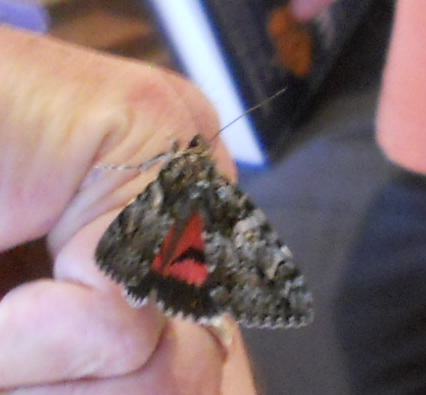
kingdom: Animalia
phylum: Arthropoda
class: Insecta
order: Lepidoptera
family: Erebidae
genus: Catocala
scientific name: Catocala promissa
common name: Light crimson underwing
